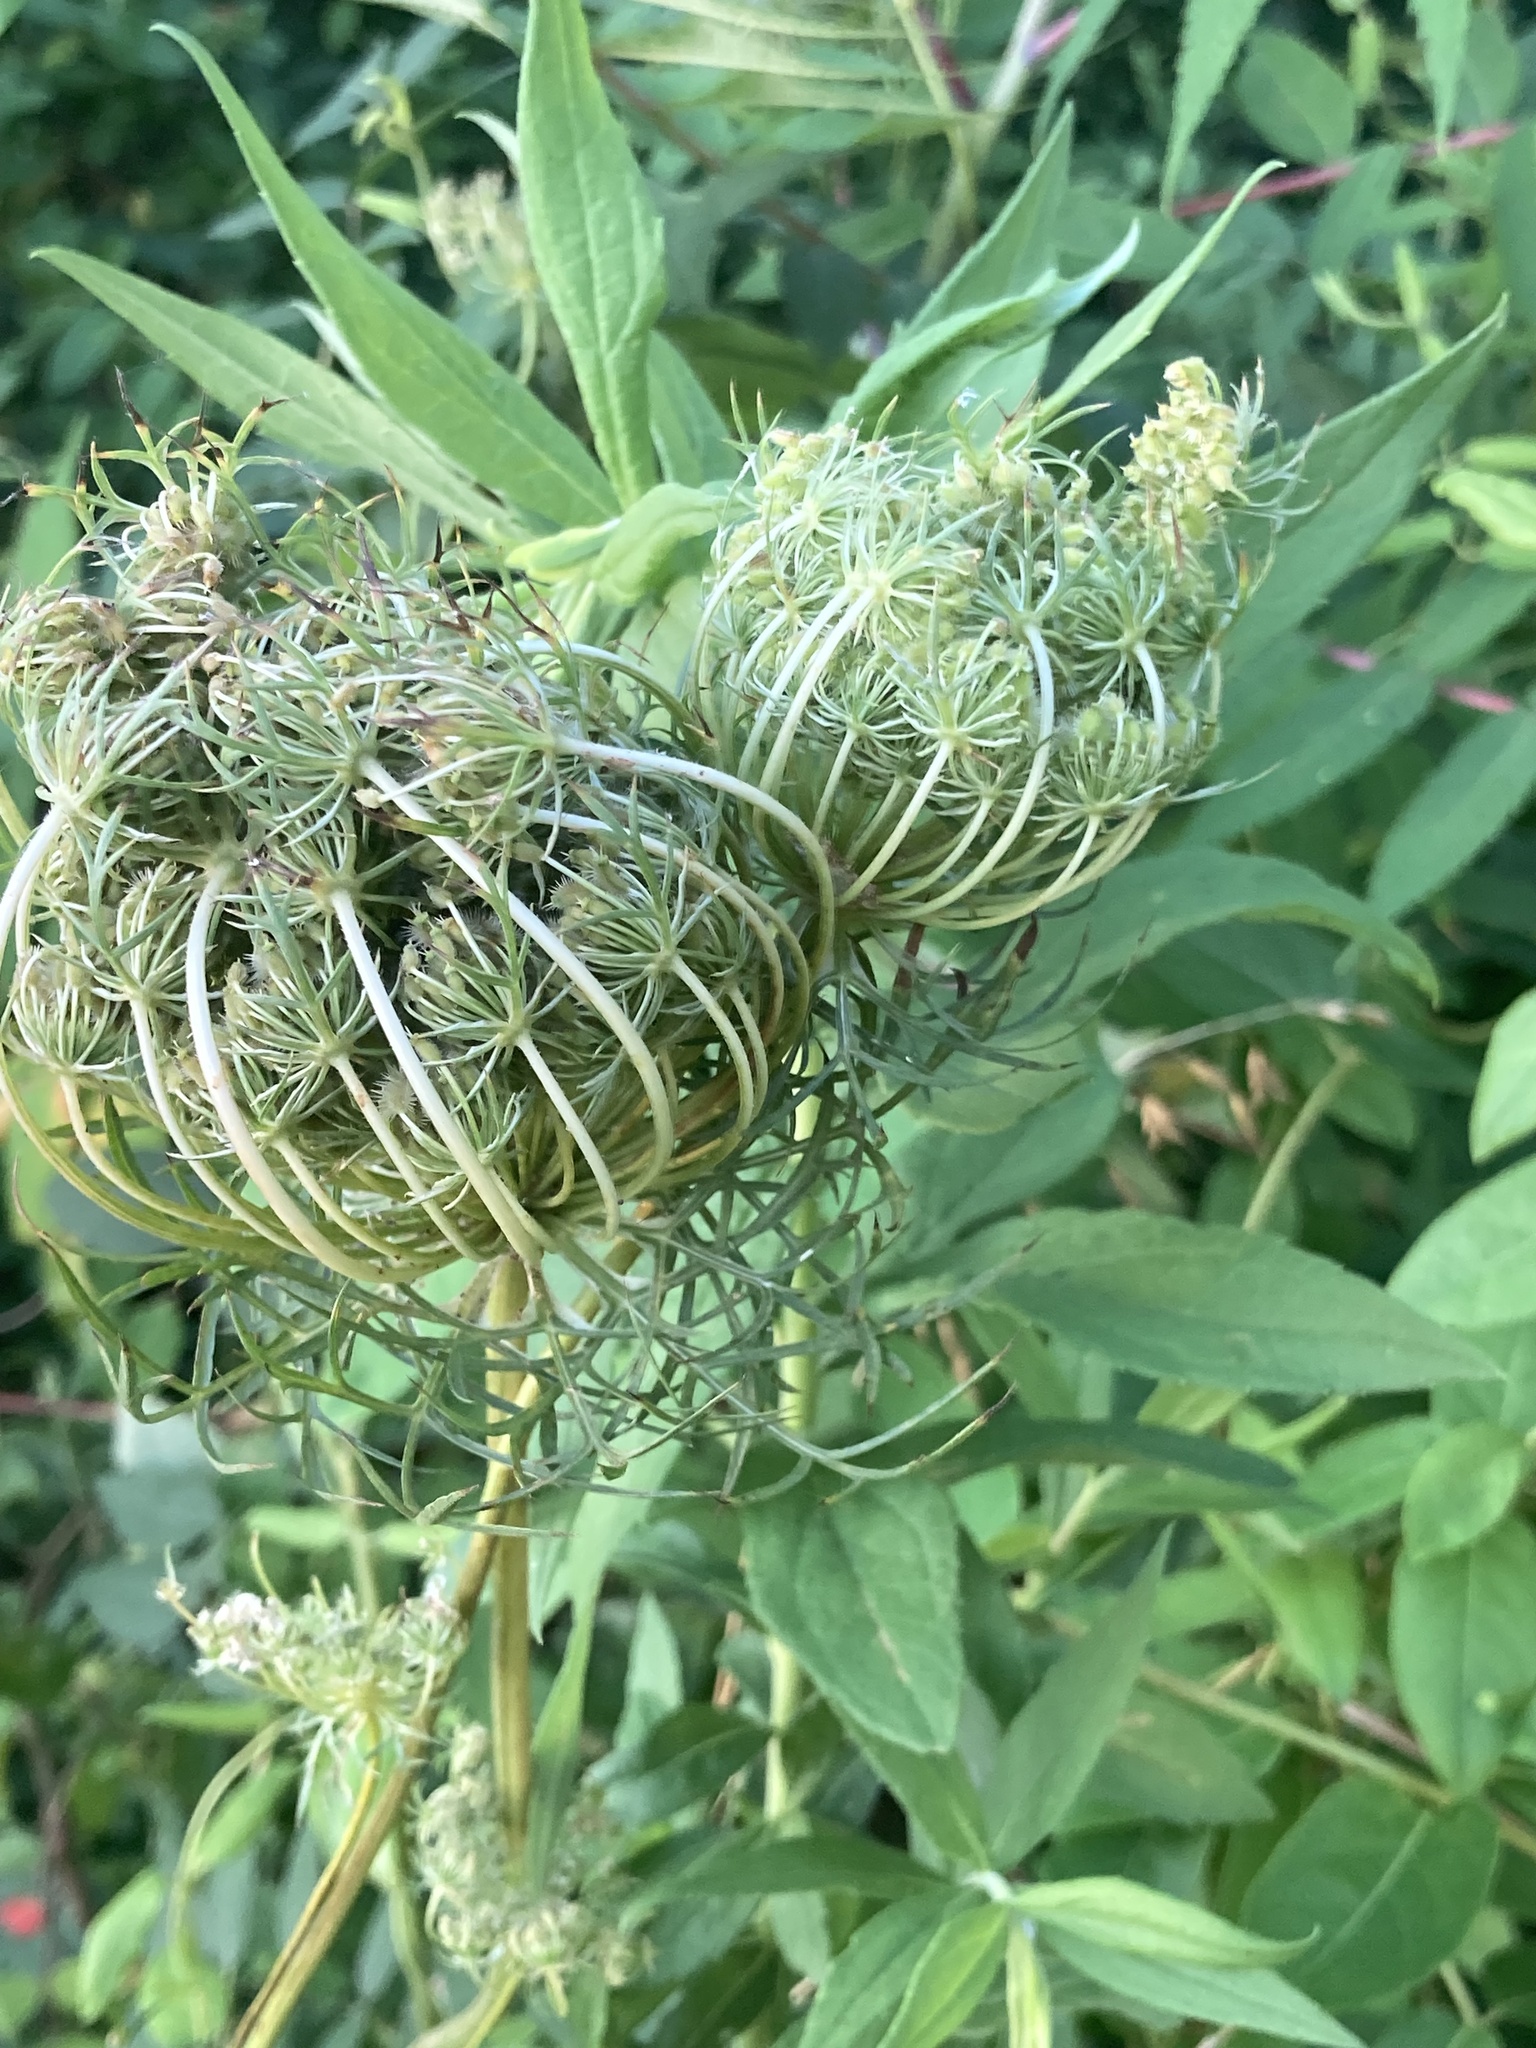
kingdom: Plantae
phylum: Tracheophyta
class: Magnoliopsida
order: Apiales
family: Apiaceae
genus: Daucus
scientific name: Daucus carota
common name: Wild carrot
